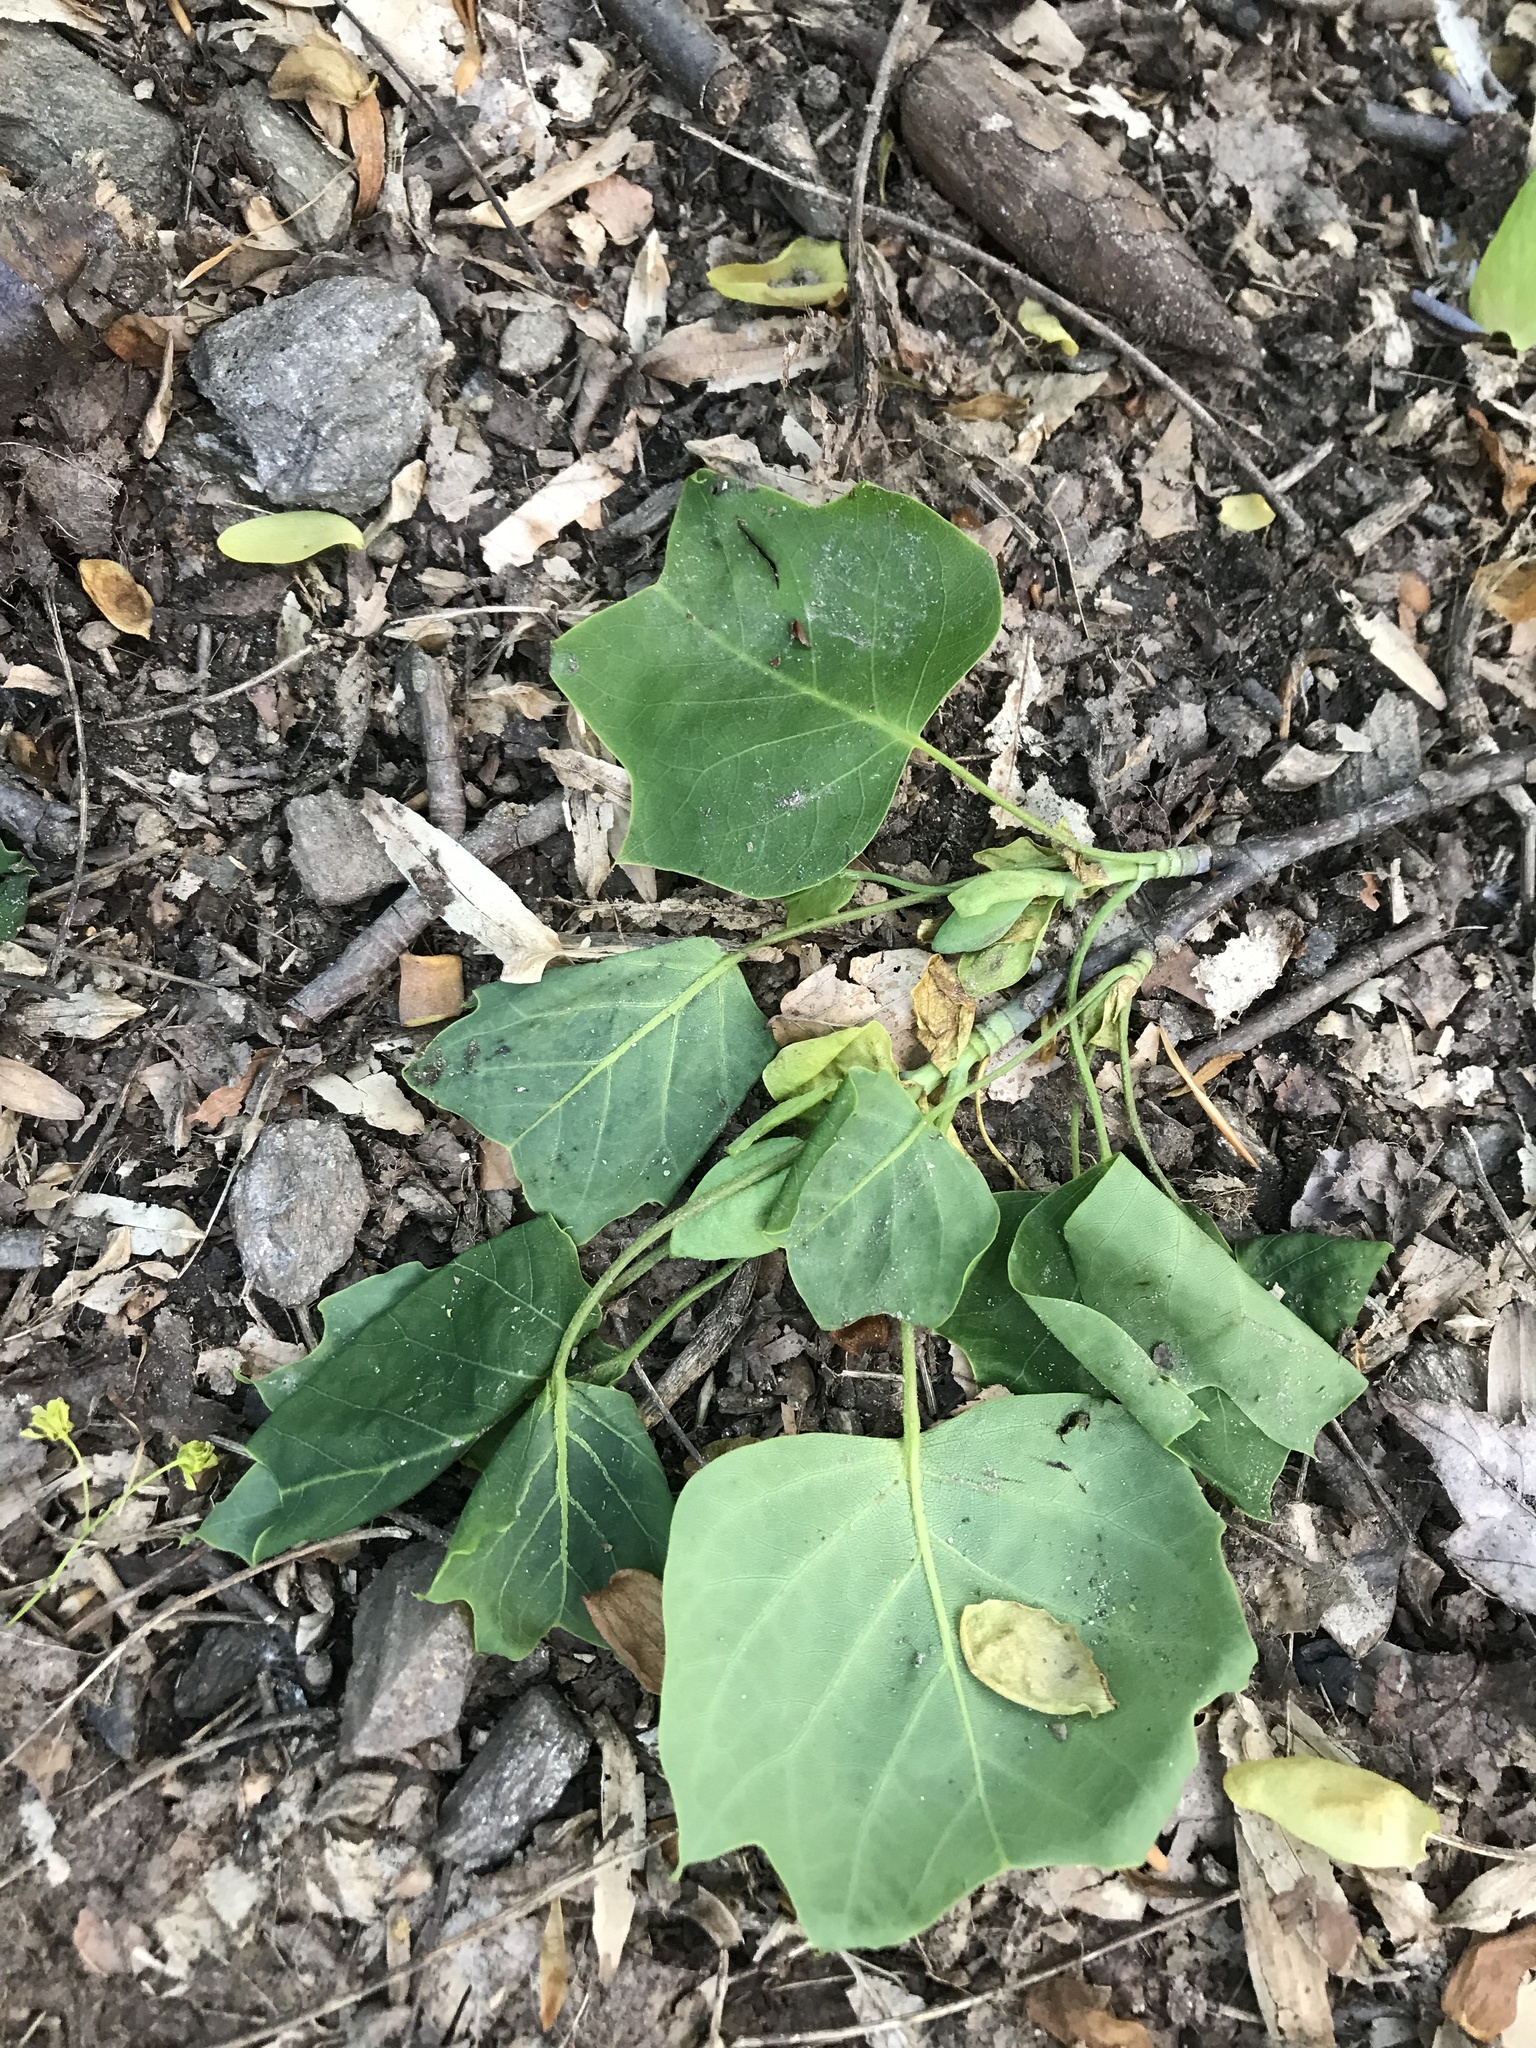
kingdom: Plantae
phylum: Tracheophyta
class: Magnoliopsida
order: Magnoliales
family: Magnoliaceae
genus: Liriodendron
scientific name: Liriodendron tulipifera
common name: Tulip tree
